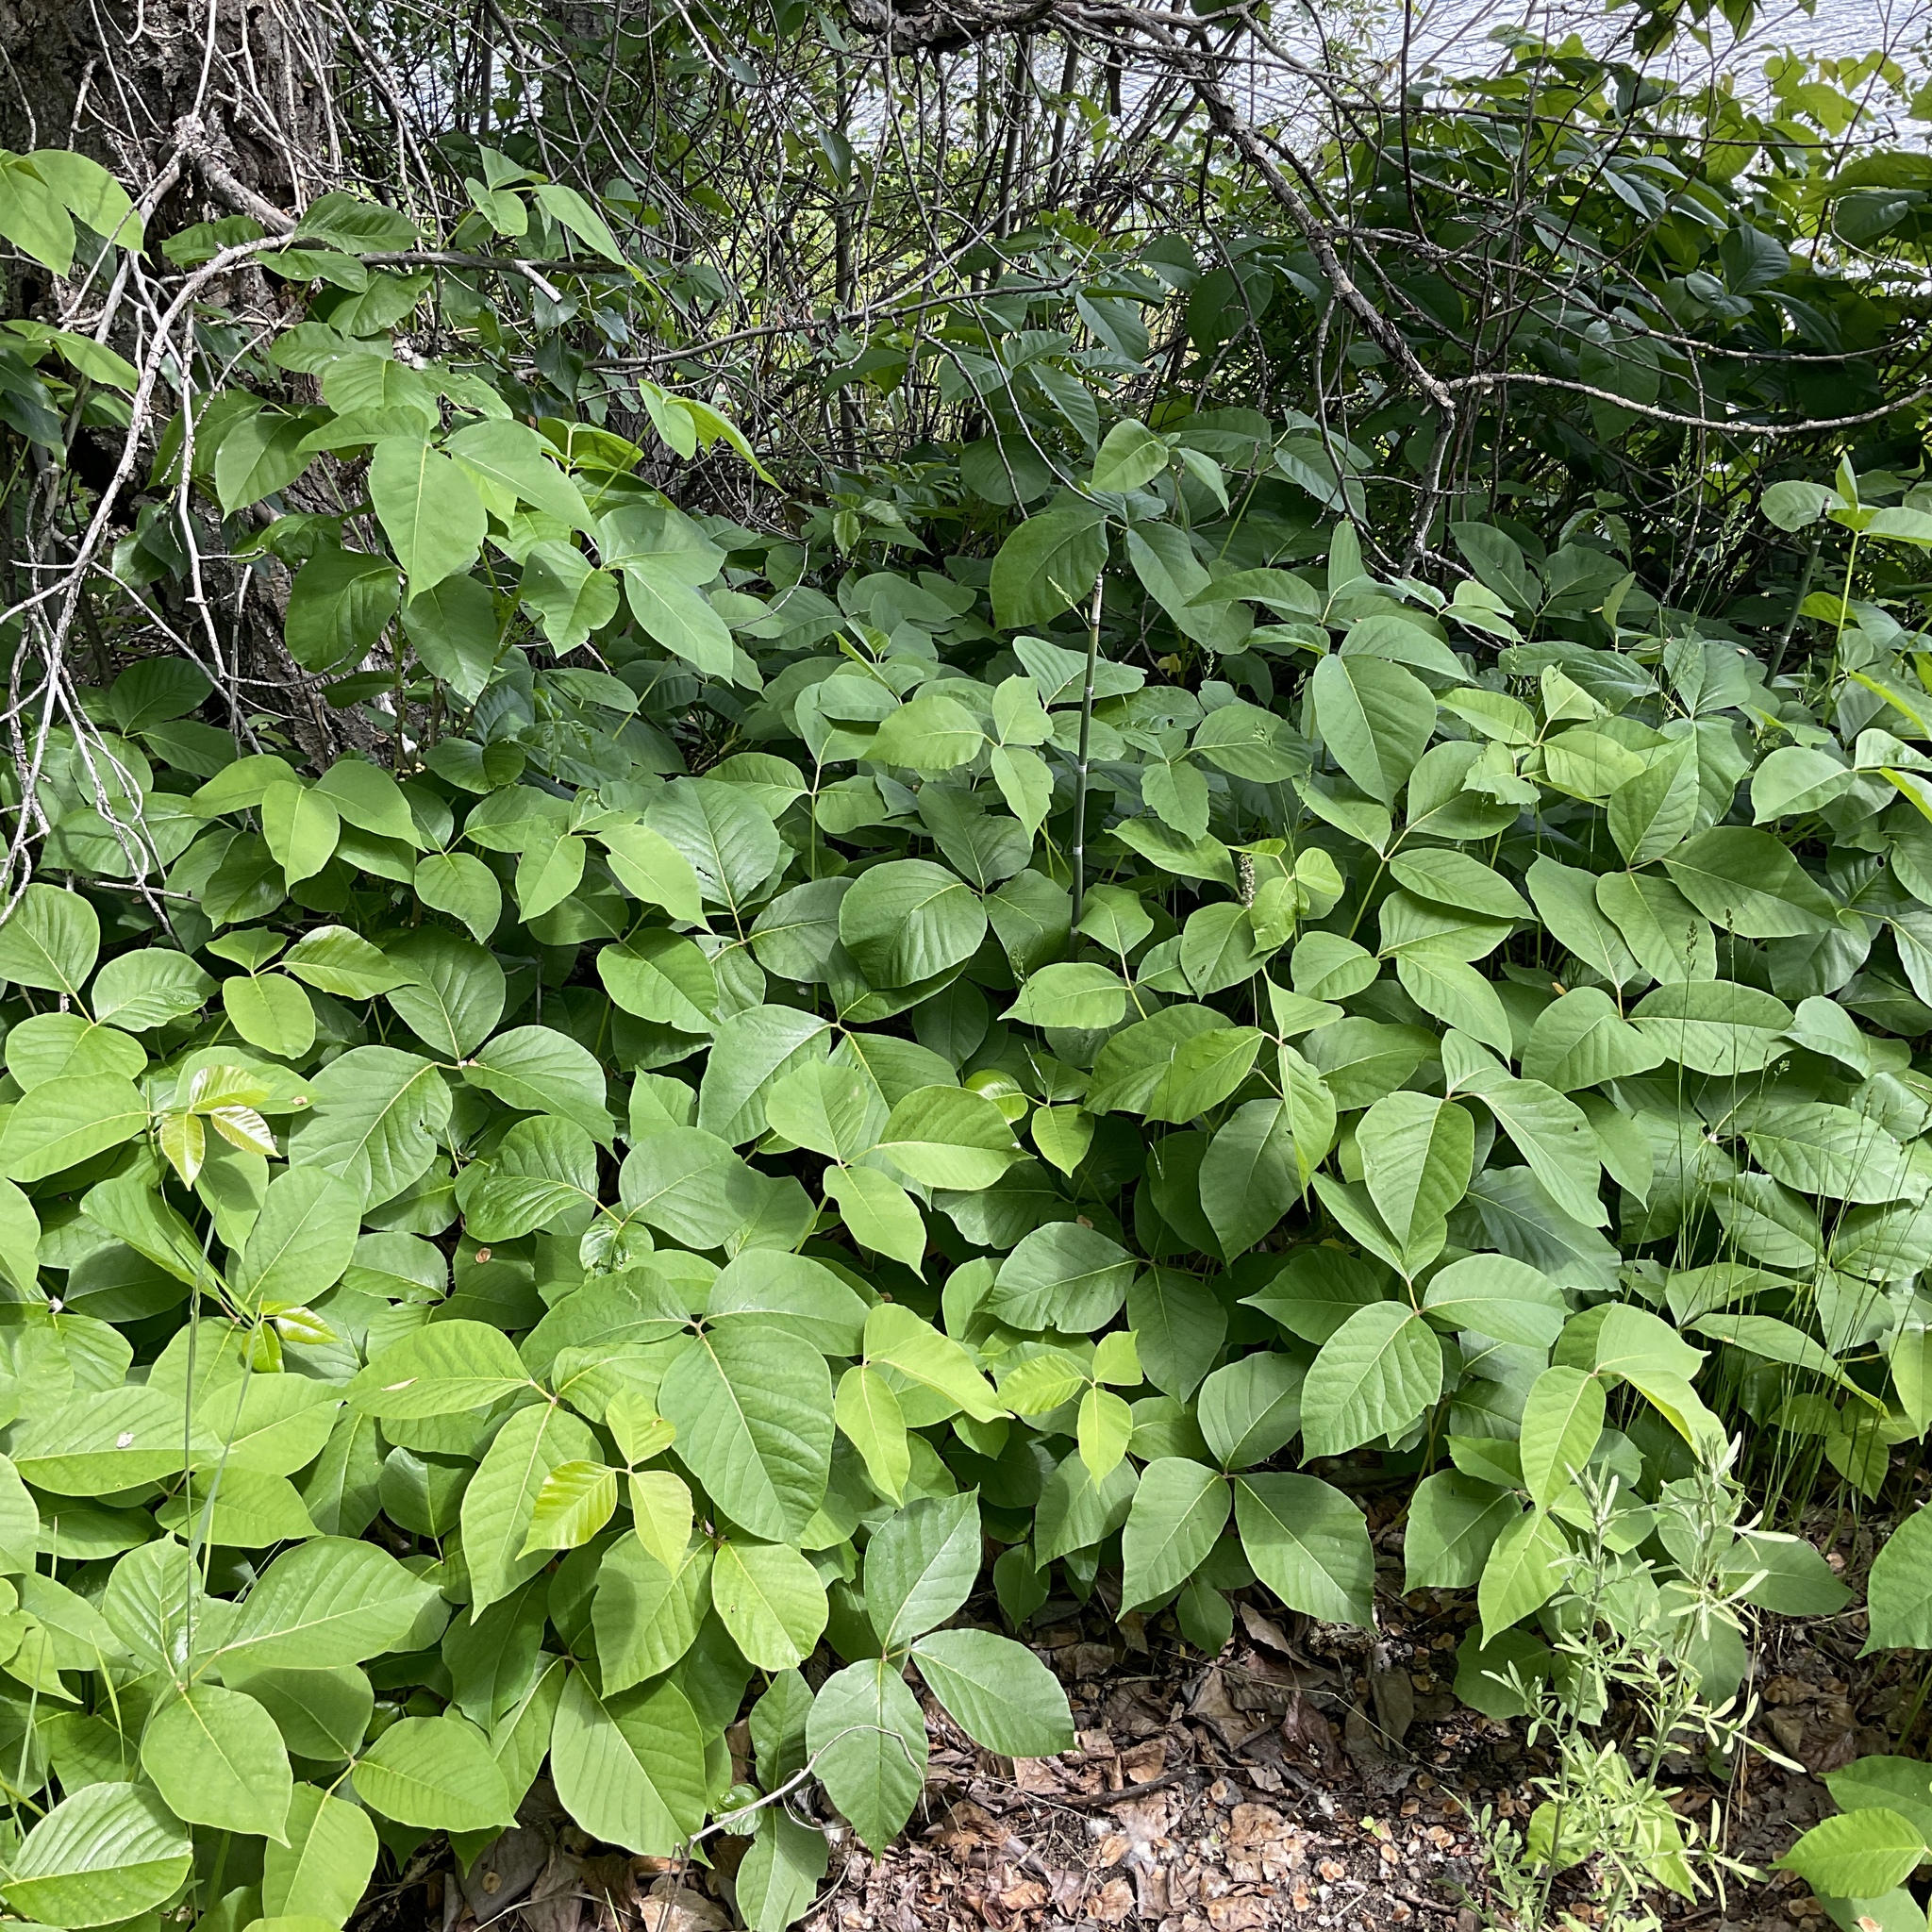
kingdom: Plantae
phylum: Tracheophyta
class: Magnoliopsida
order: Sapindales
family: Anacardiaceae
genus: Toxicodendron
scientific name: Toxicodendron rydbergii
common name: Rydberg's poison-ivy
